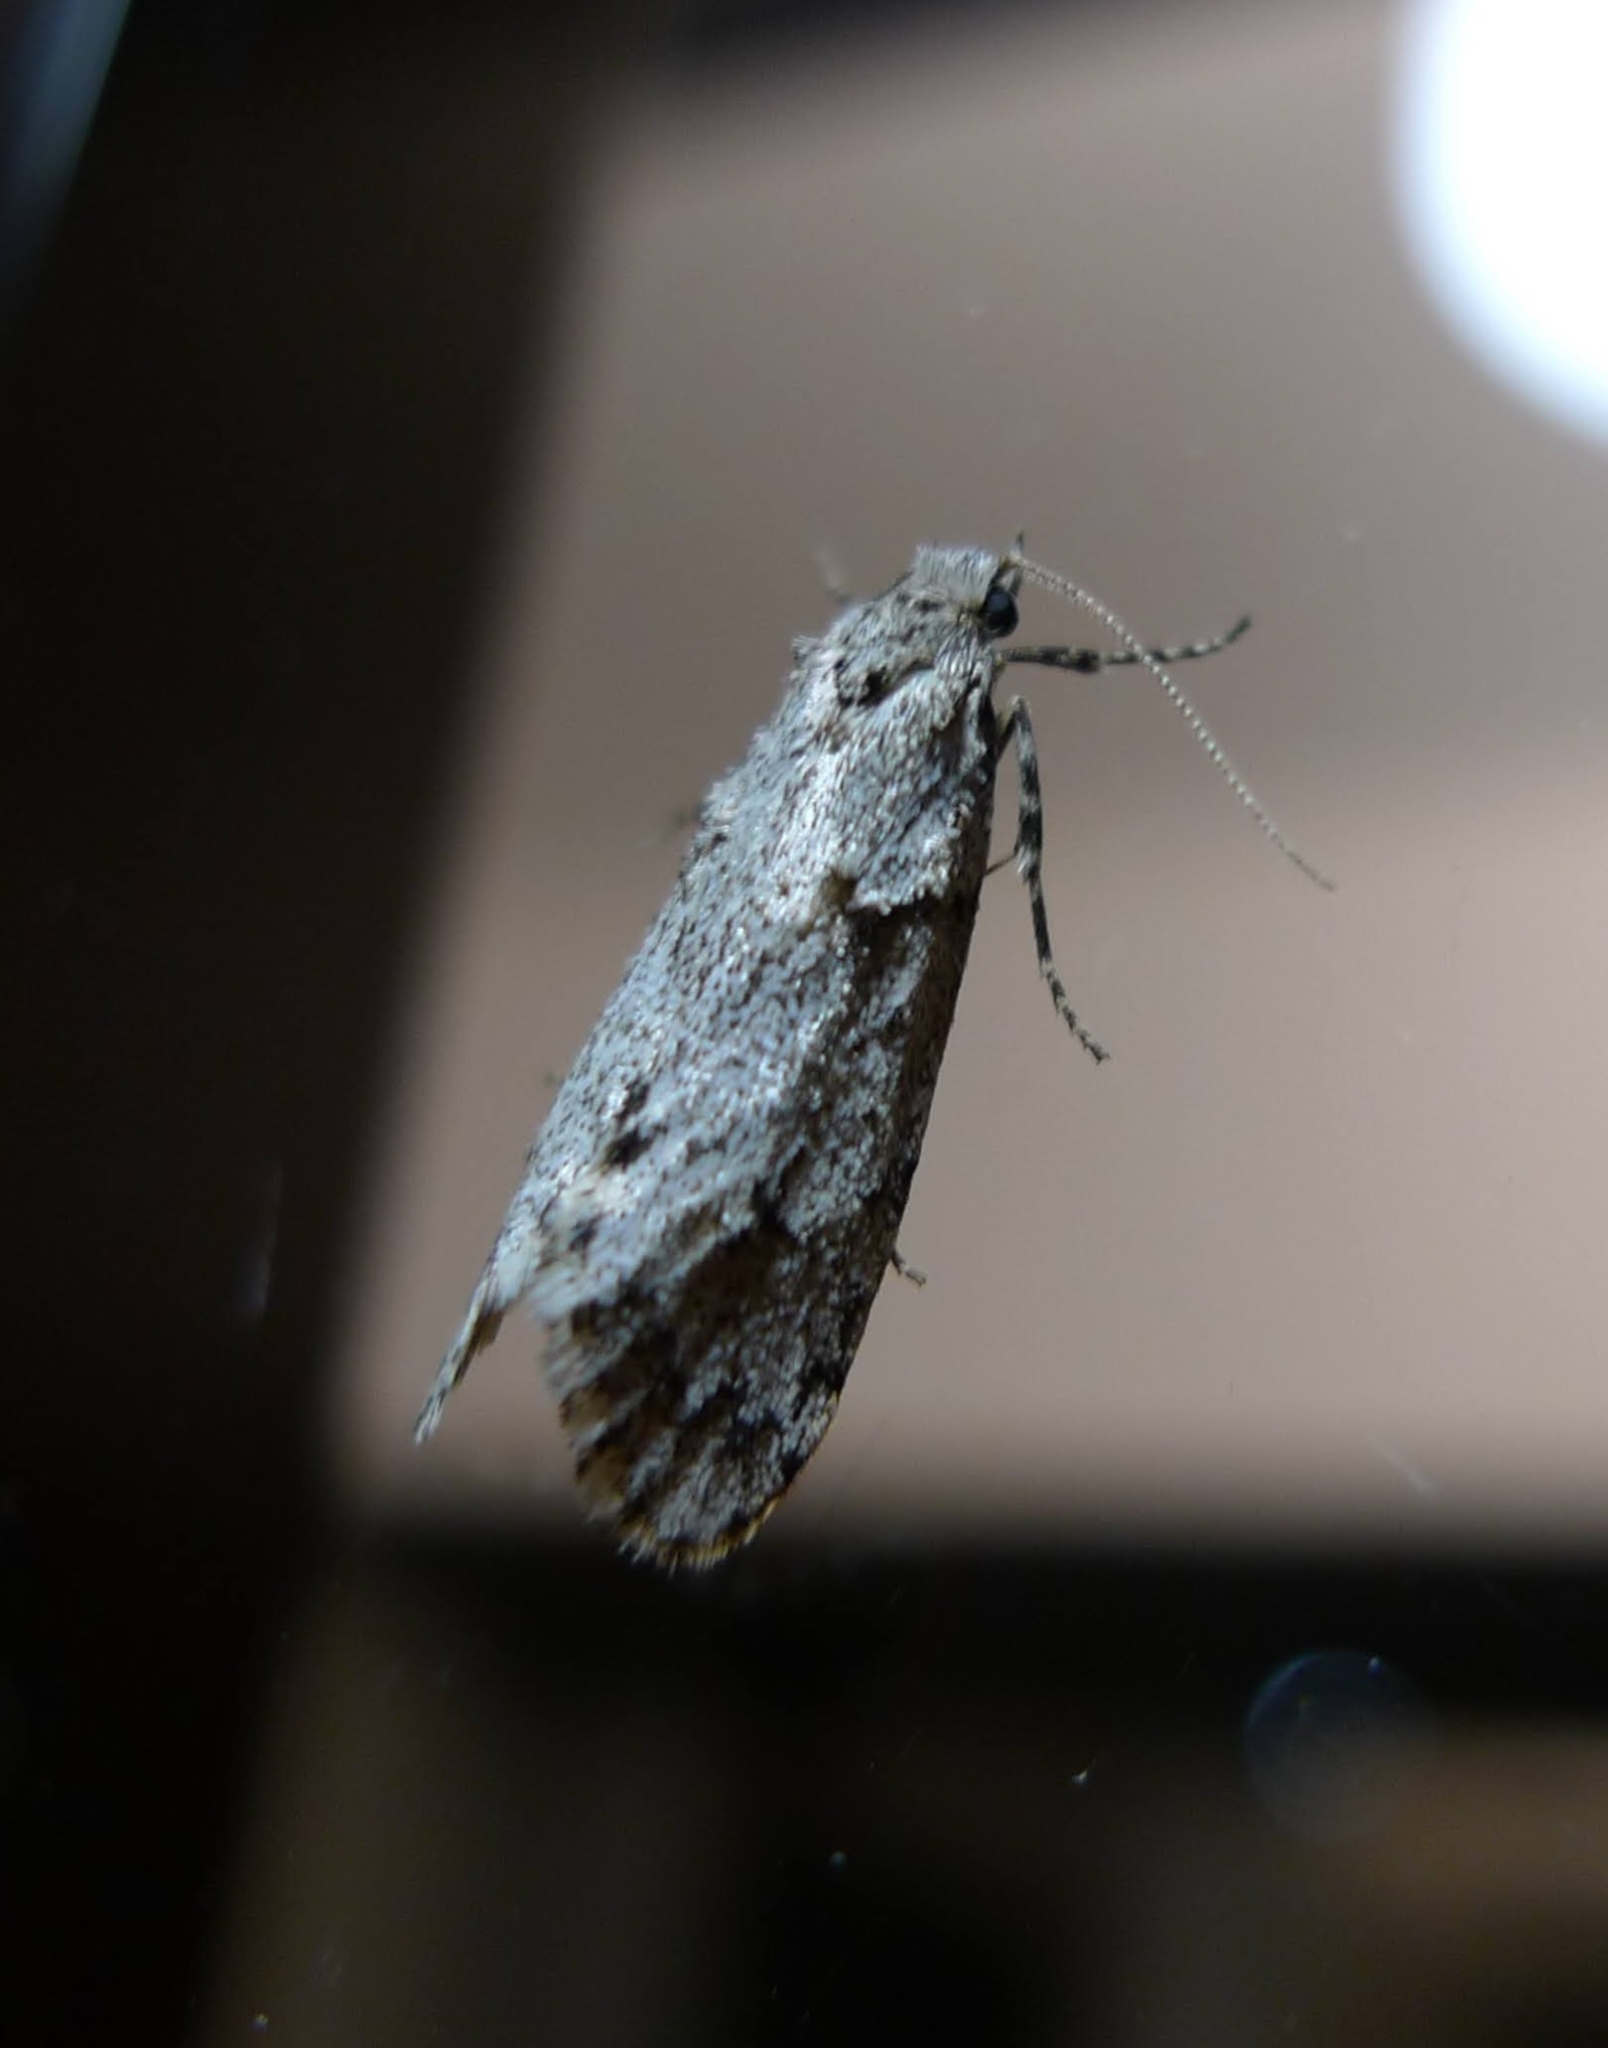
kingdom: Animalia
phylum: Arthropoda
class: Insecta
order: Lepidoptera
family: Lypusidae
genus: Diurnea
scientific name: Diurnea fagella
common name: March tubic
